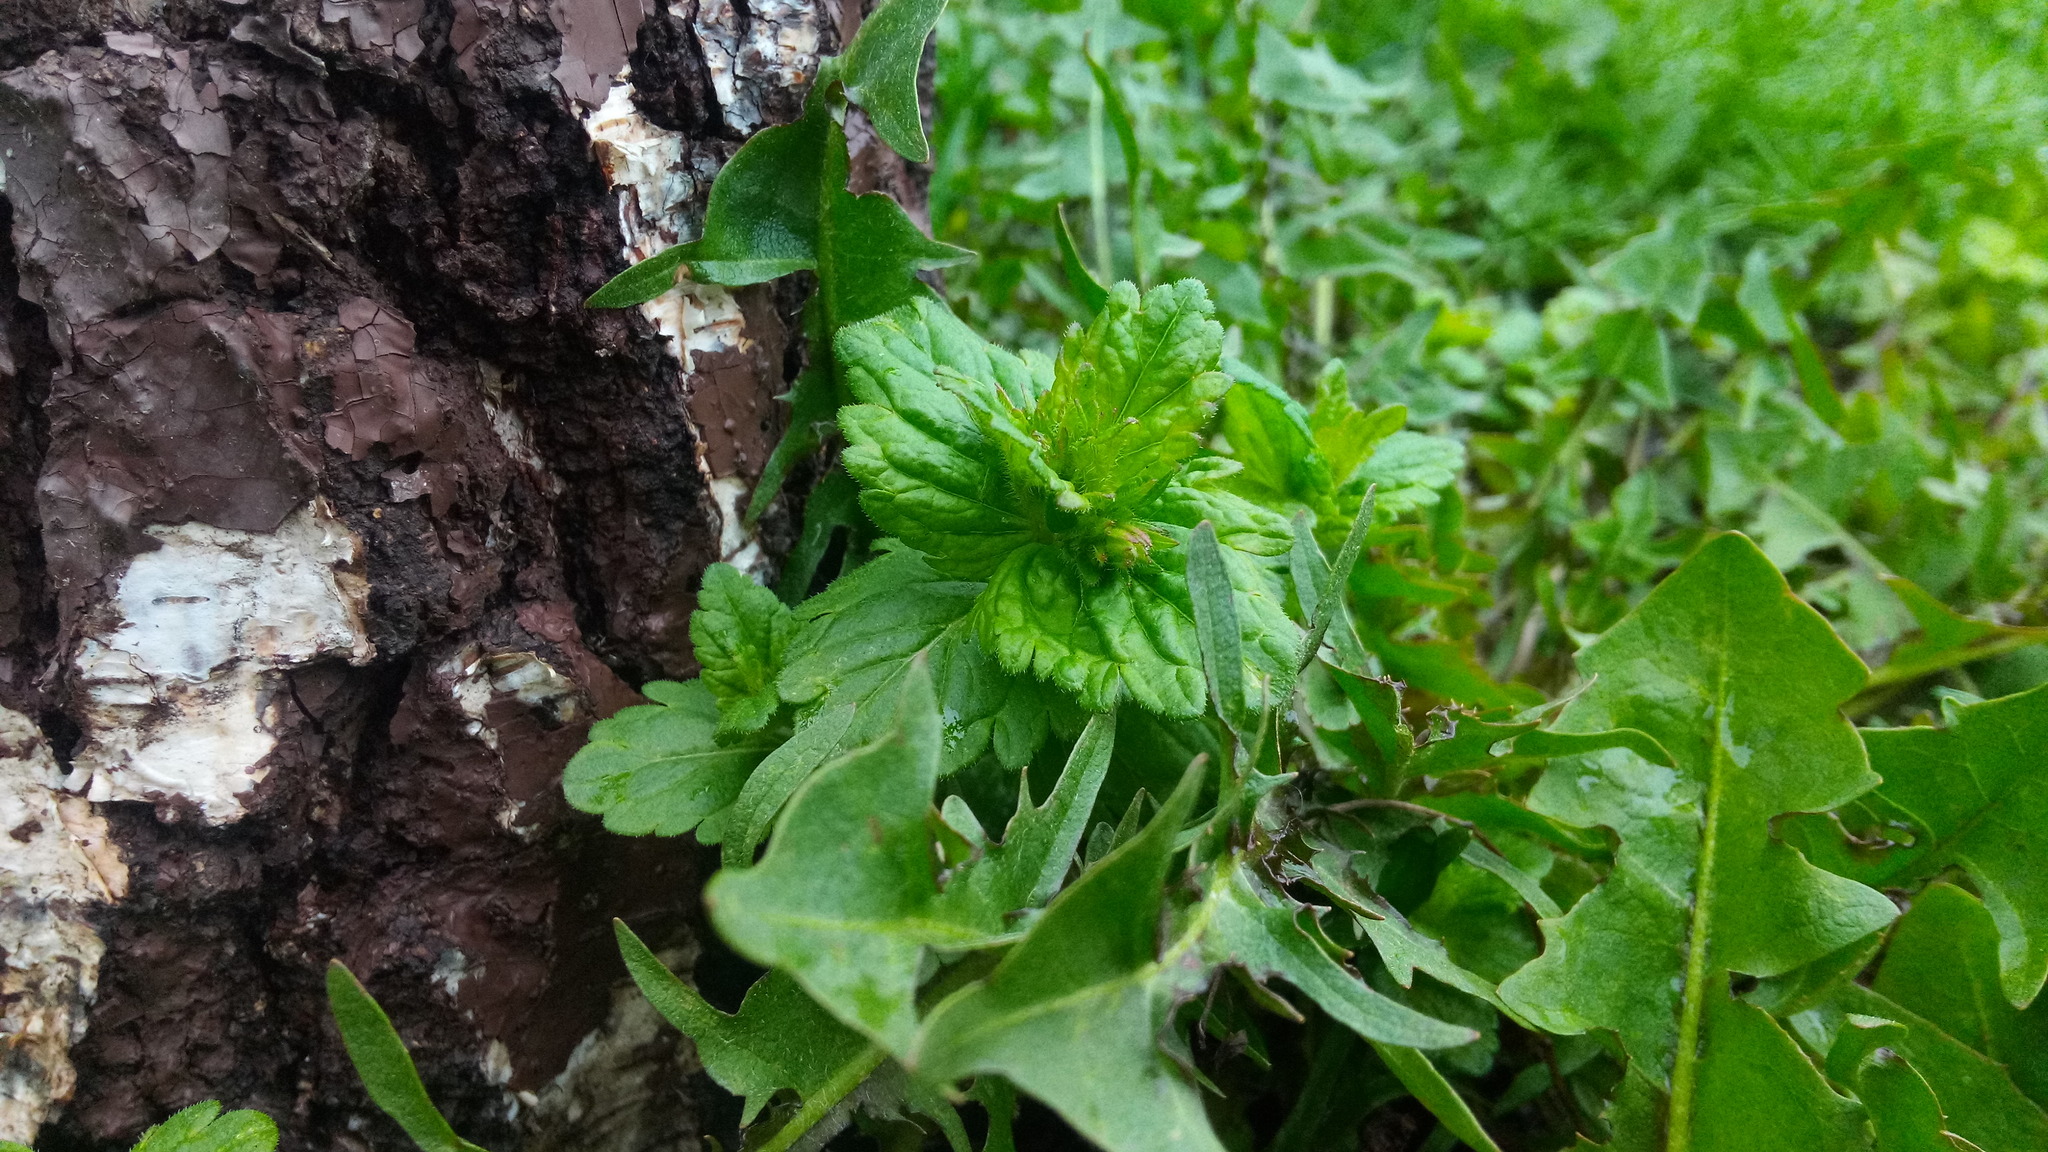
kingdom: Plantae
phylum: Tracheophyta
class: Magnoliopsida
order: Lamiales
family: Plantaginaceae
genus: Veronica
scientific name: Veronica chamaedrys
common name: Germander speedwell
